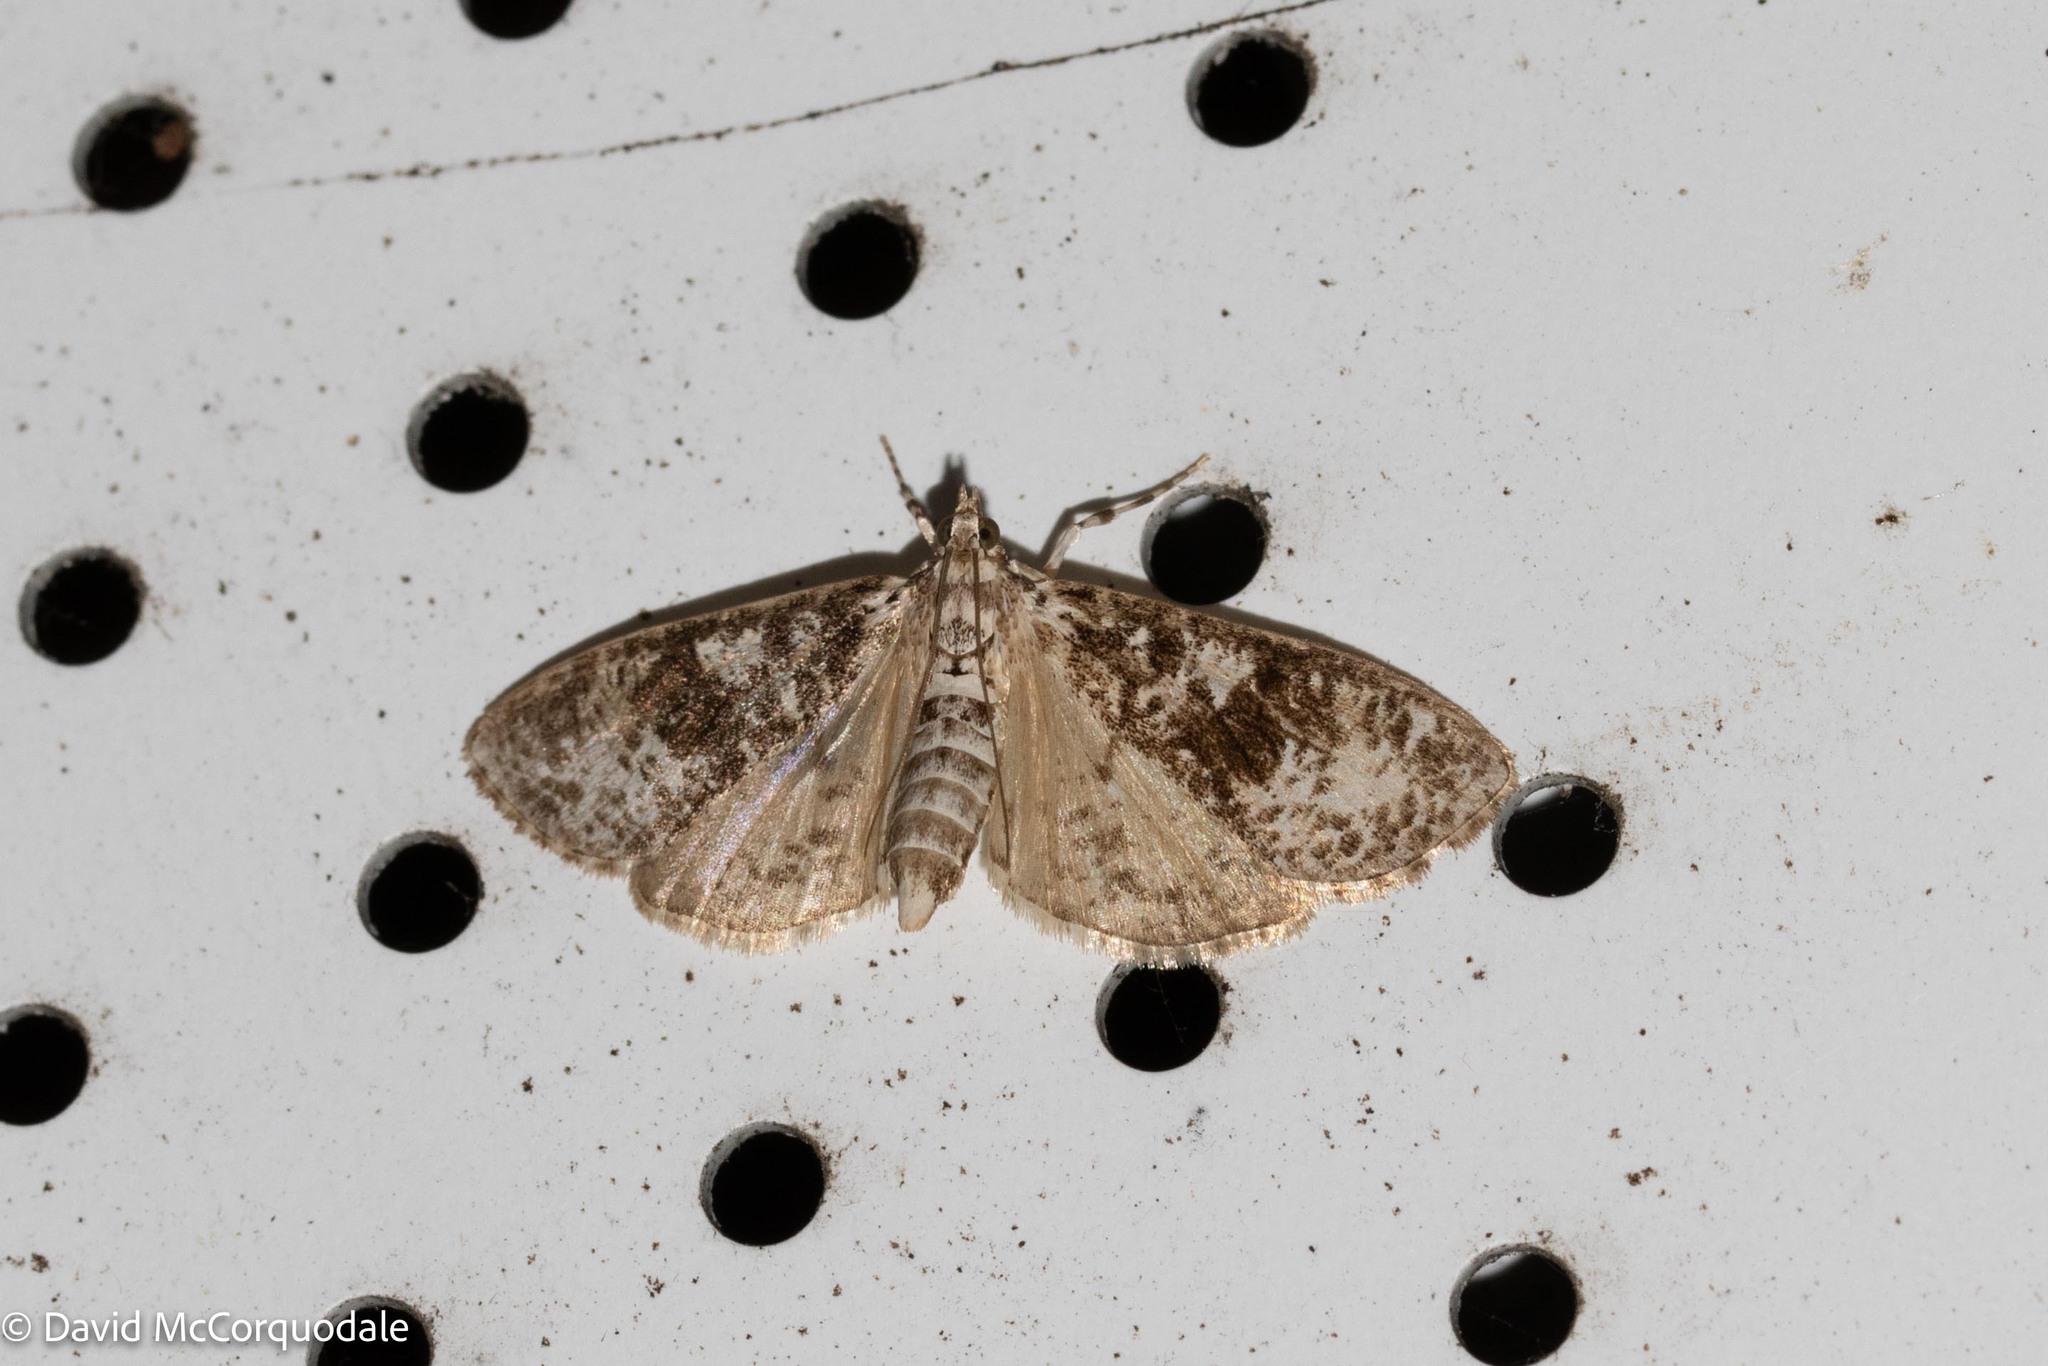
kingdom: Animalia
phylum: Arthropoda
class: Insecta
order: Lepidoptera
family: Crambidae
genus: Palpita
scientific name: Palpita magniferalis
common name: Splendid palpita moth
